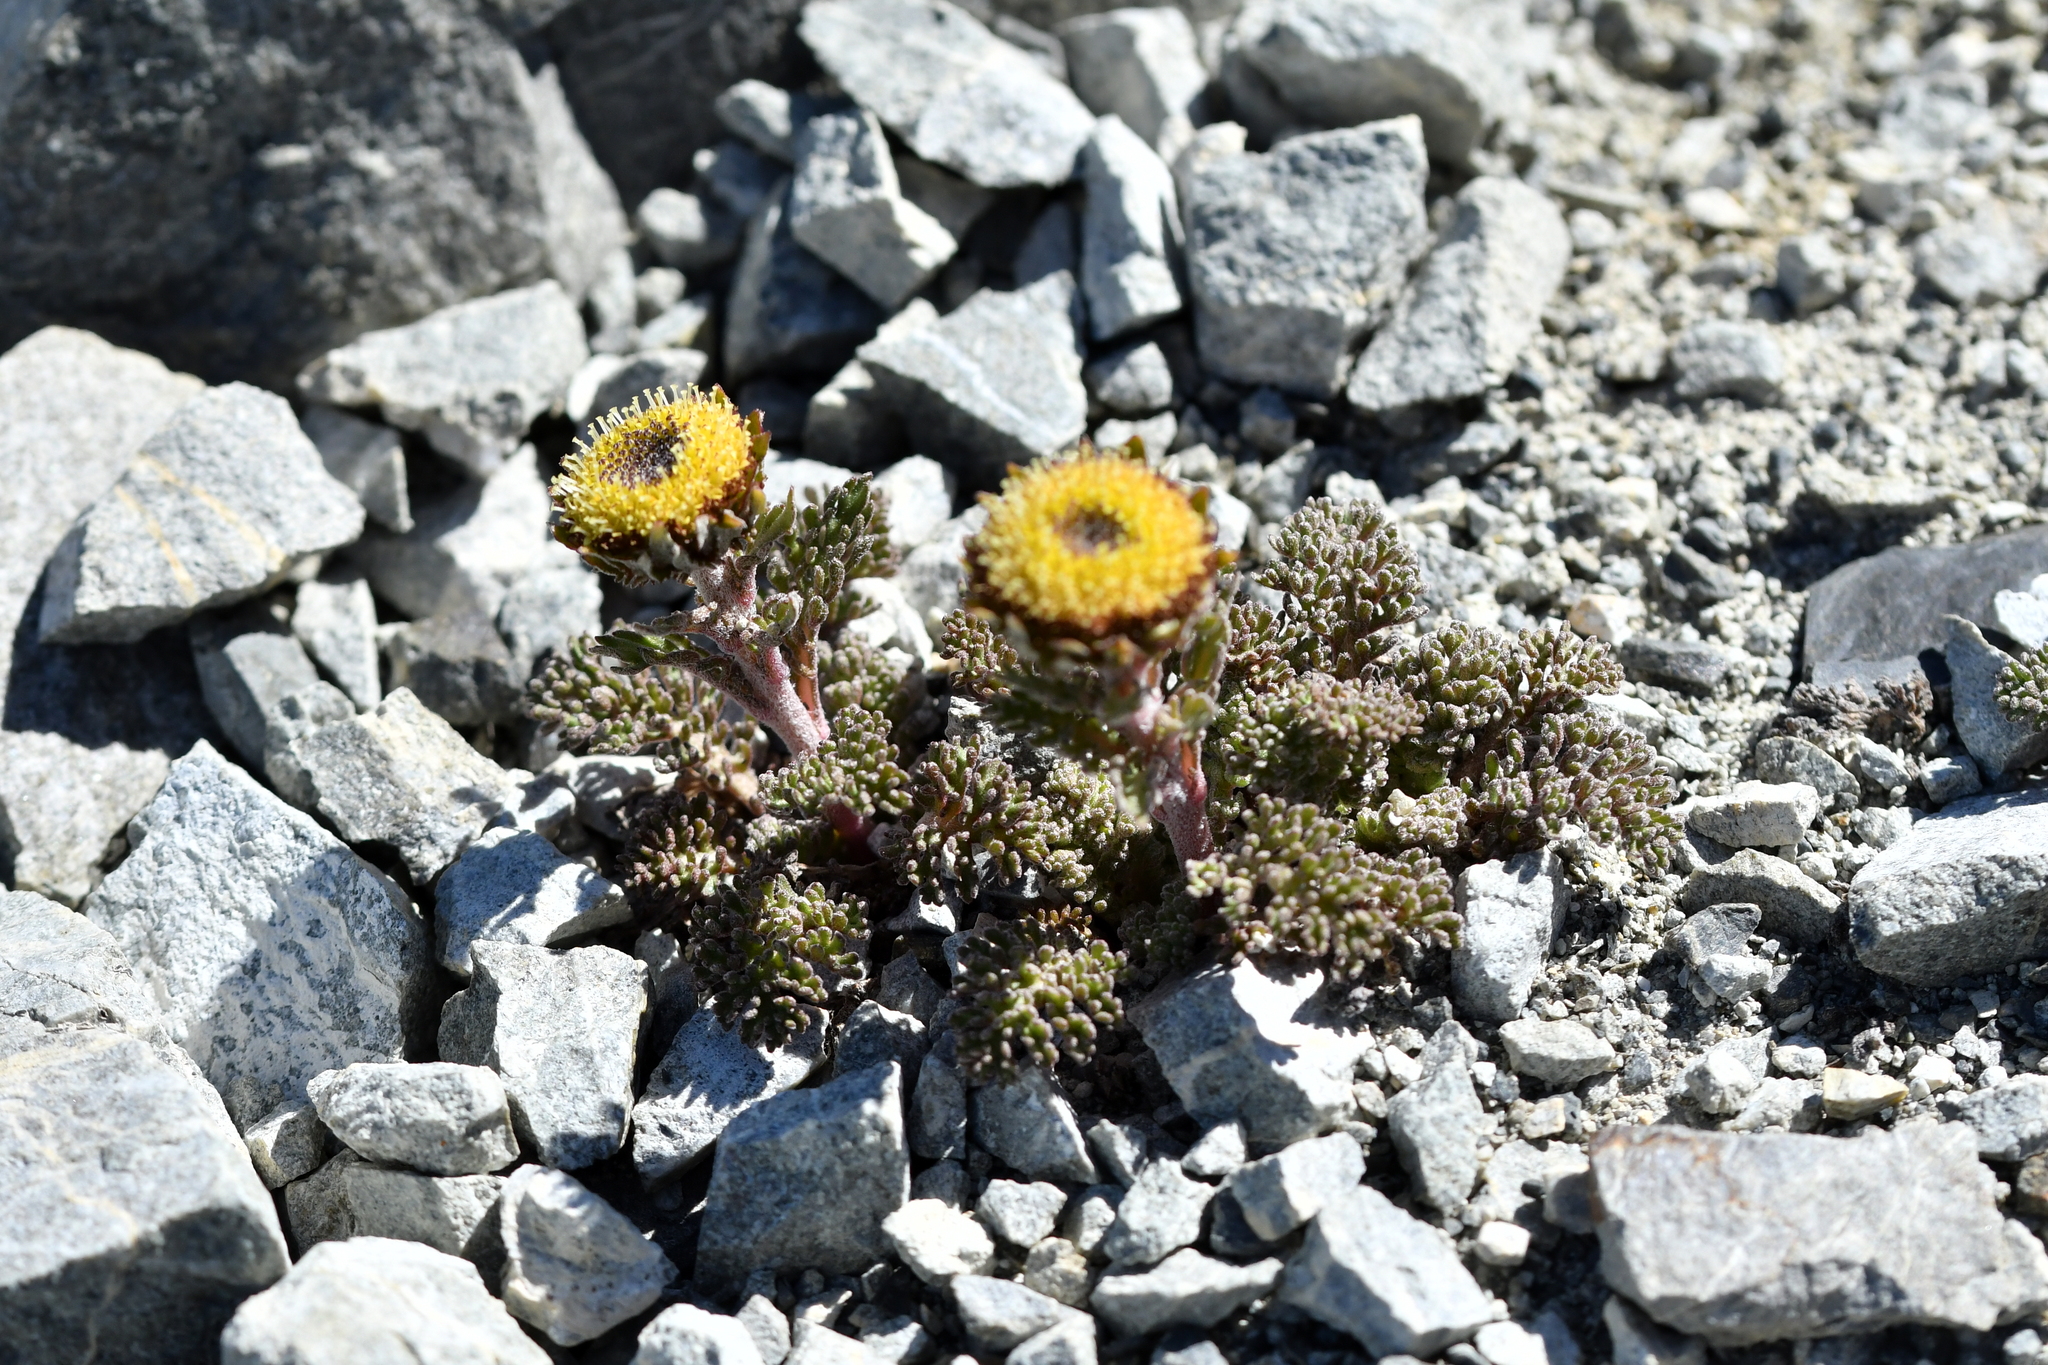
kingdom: Plantae
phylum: Tracheophyta
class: Magnoliopsida
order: Asterales
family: Asteraceae
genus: Leptinella
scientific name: Leptinella dendyi
